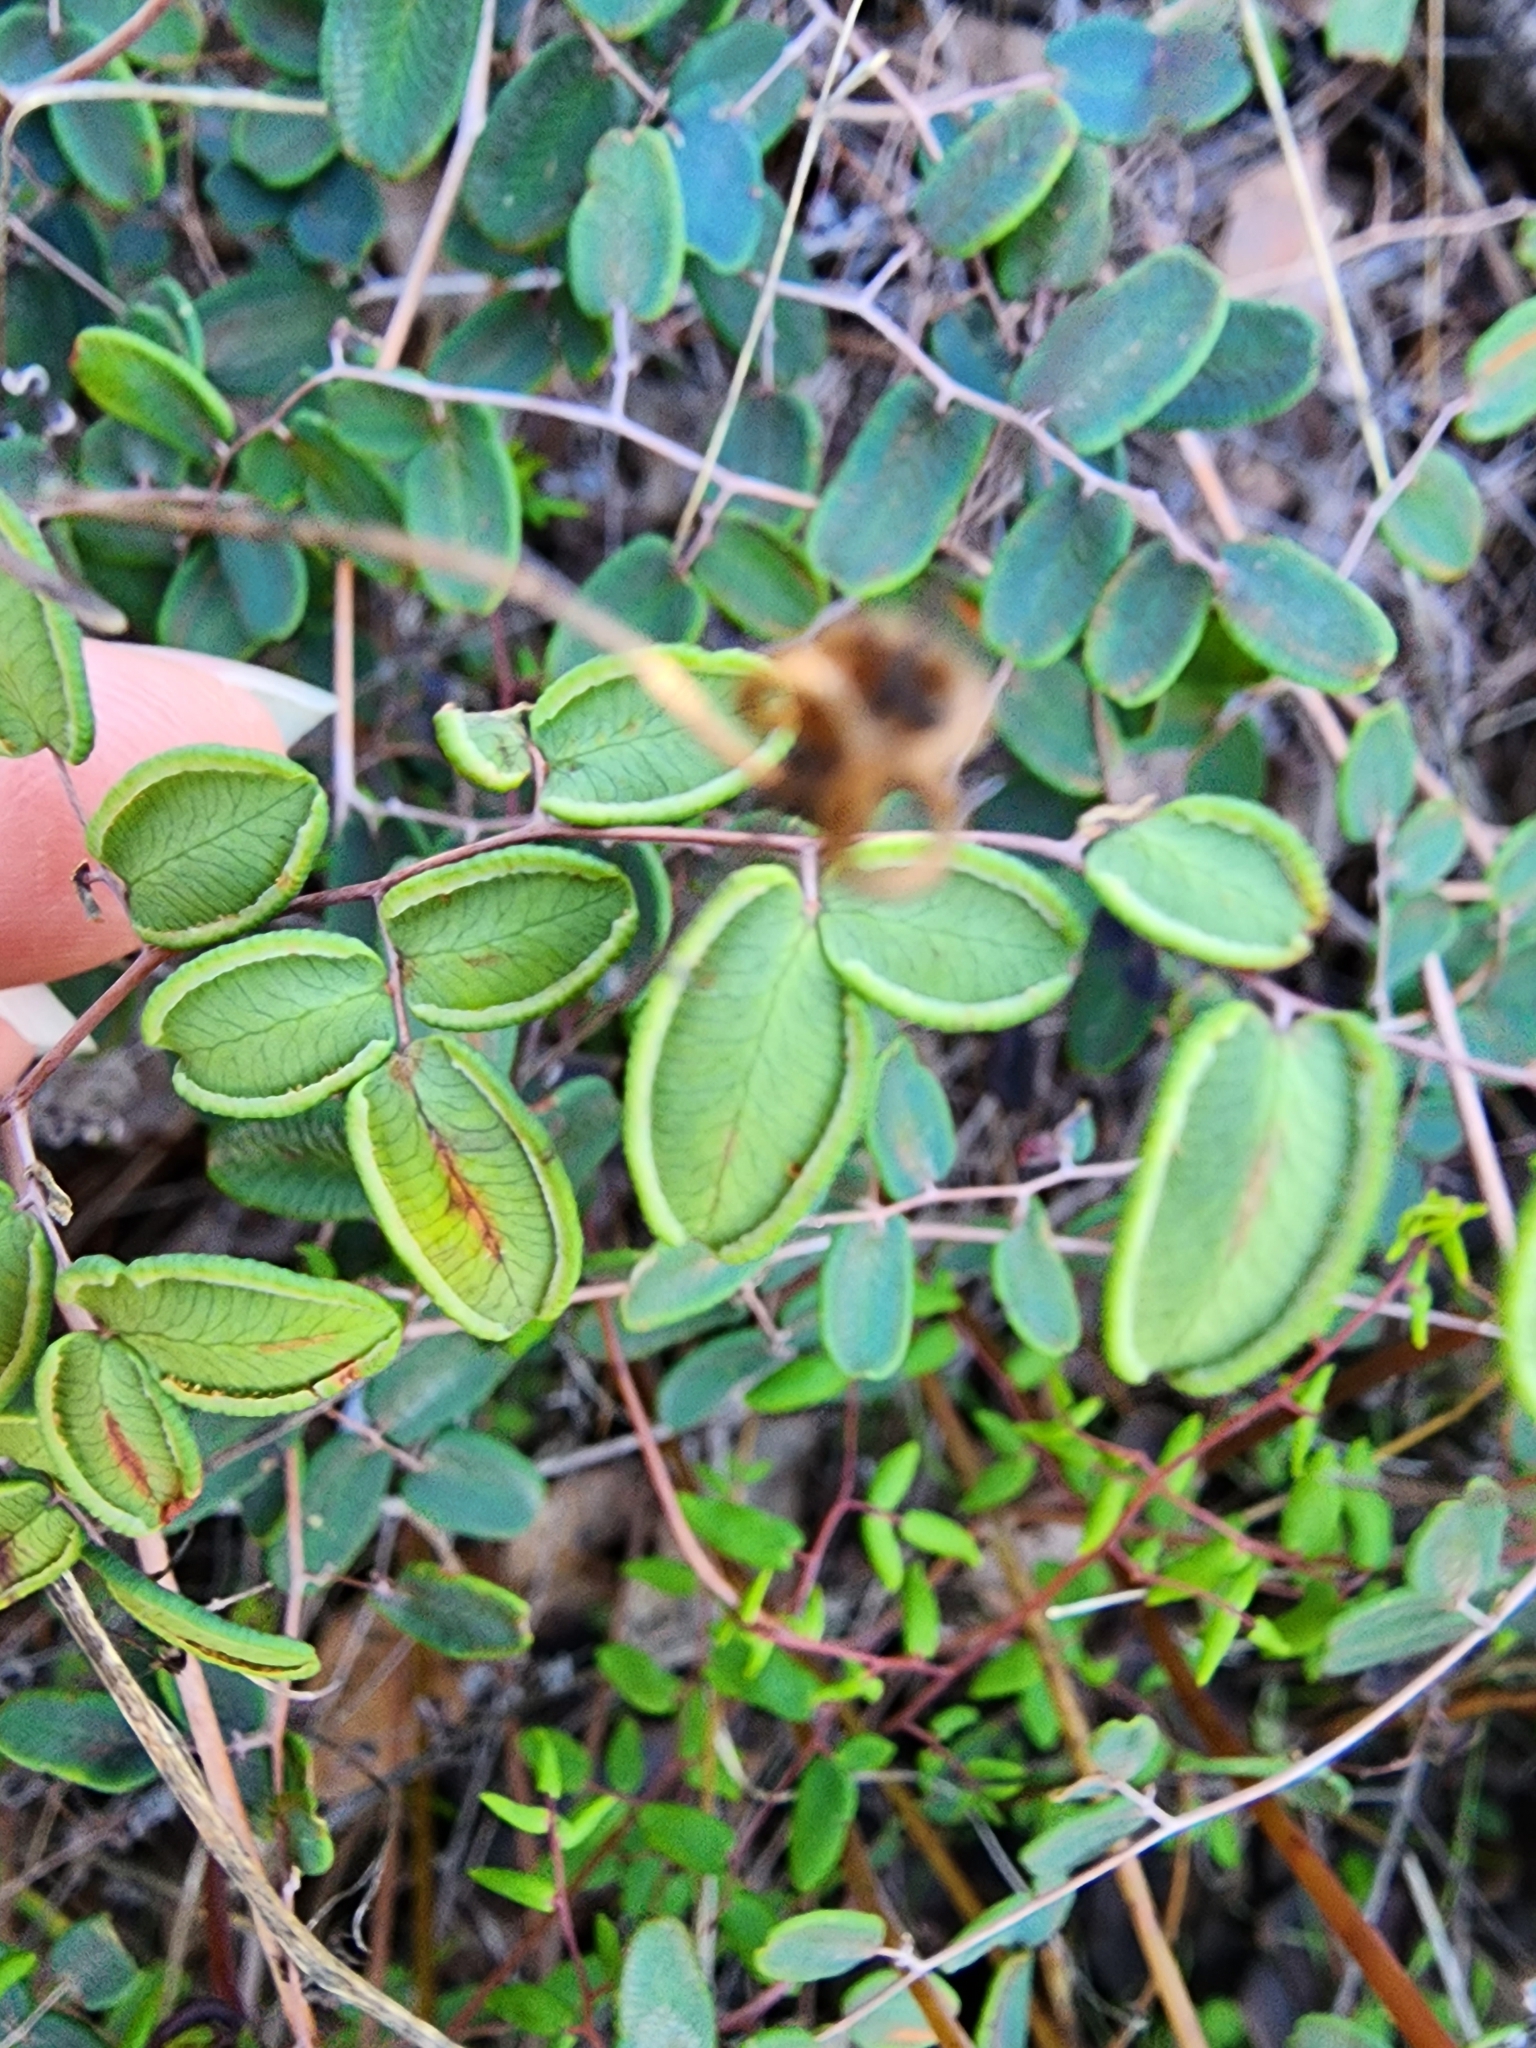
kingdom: Plantae
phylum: Tracheophyta
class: Polypodiopsida
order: Polypodiales
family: Pteridaceae
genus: Pellaea
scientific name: Pellaea andromedifolia
